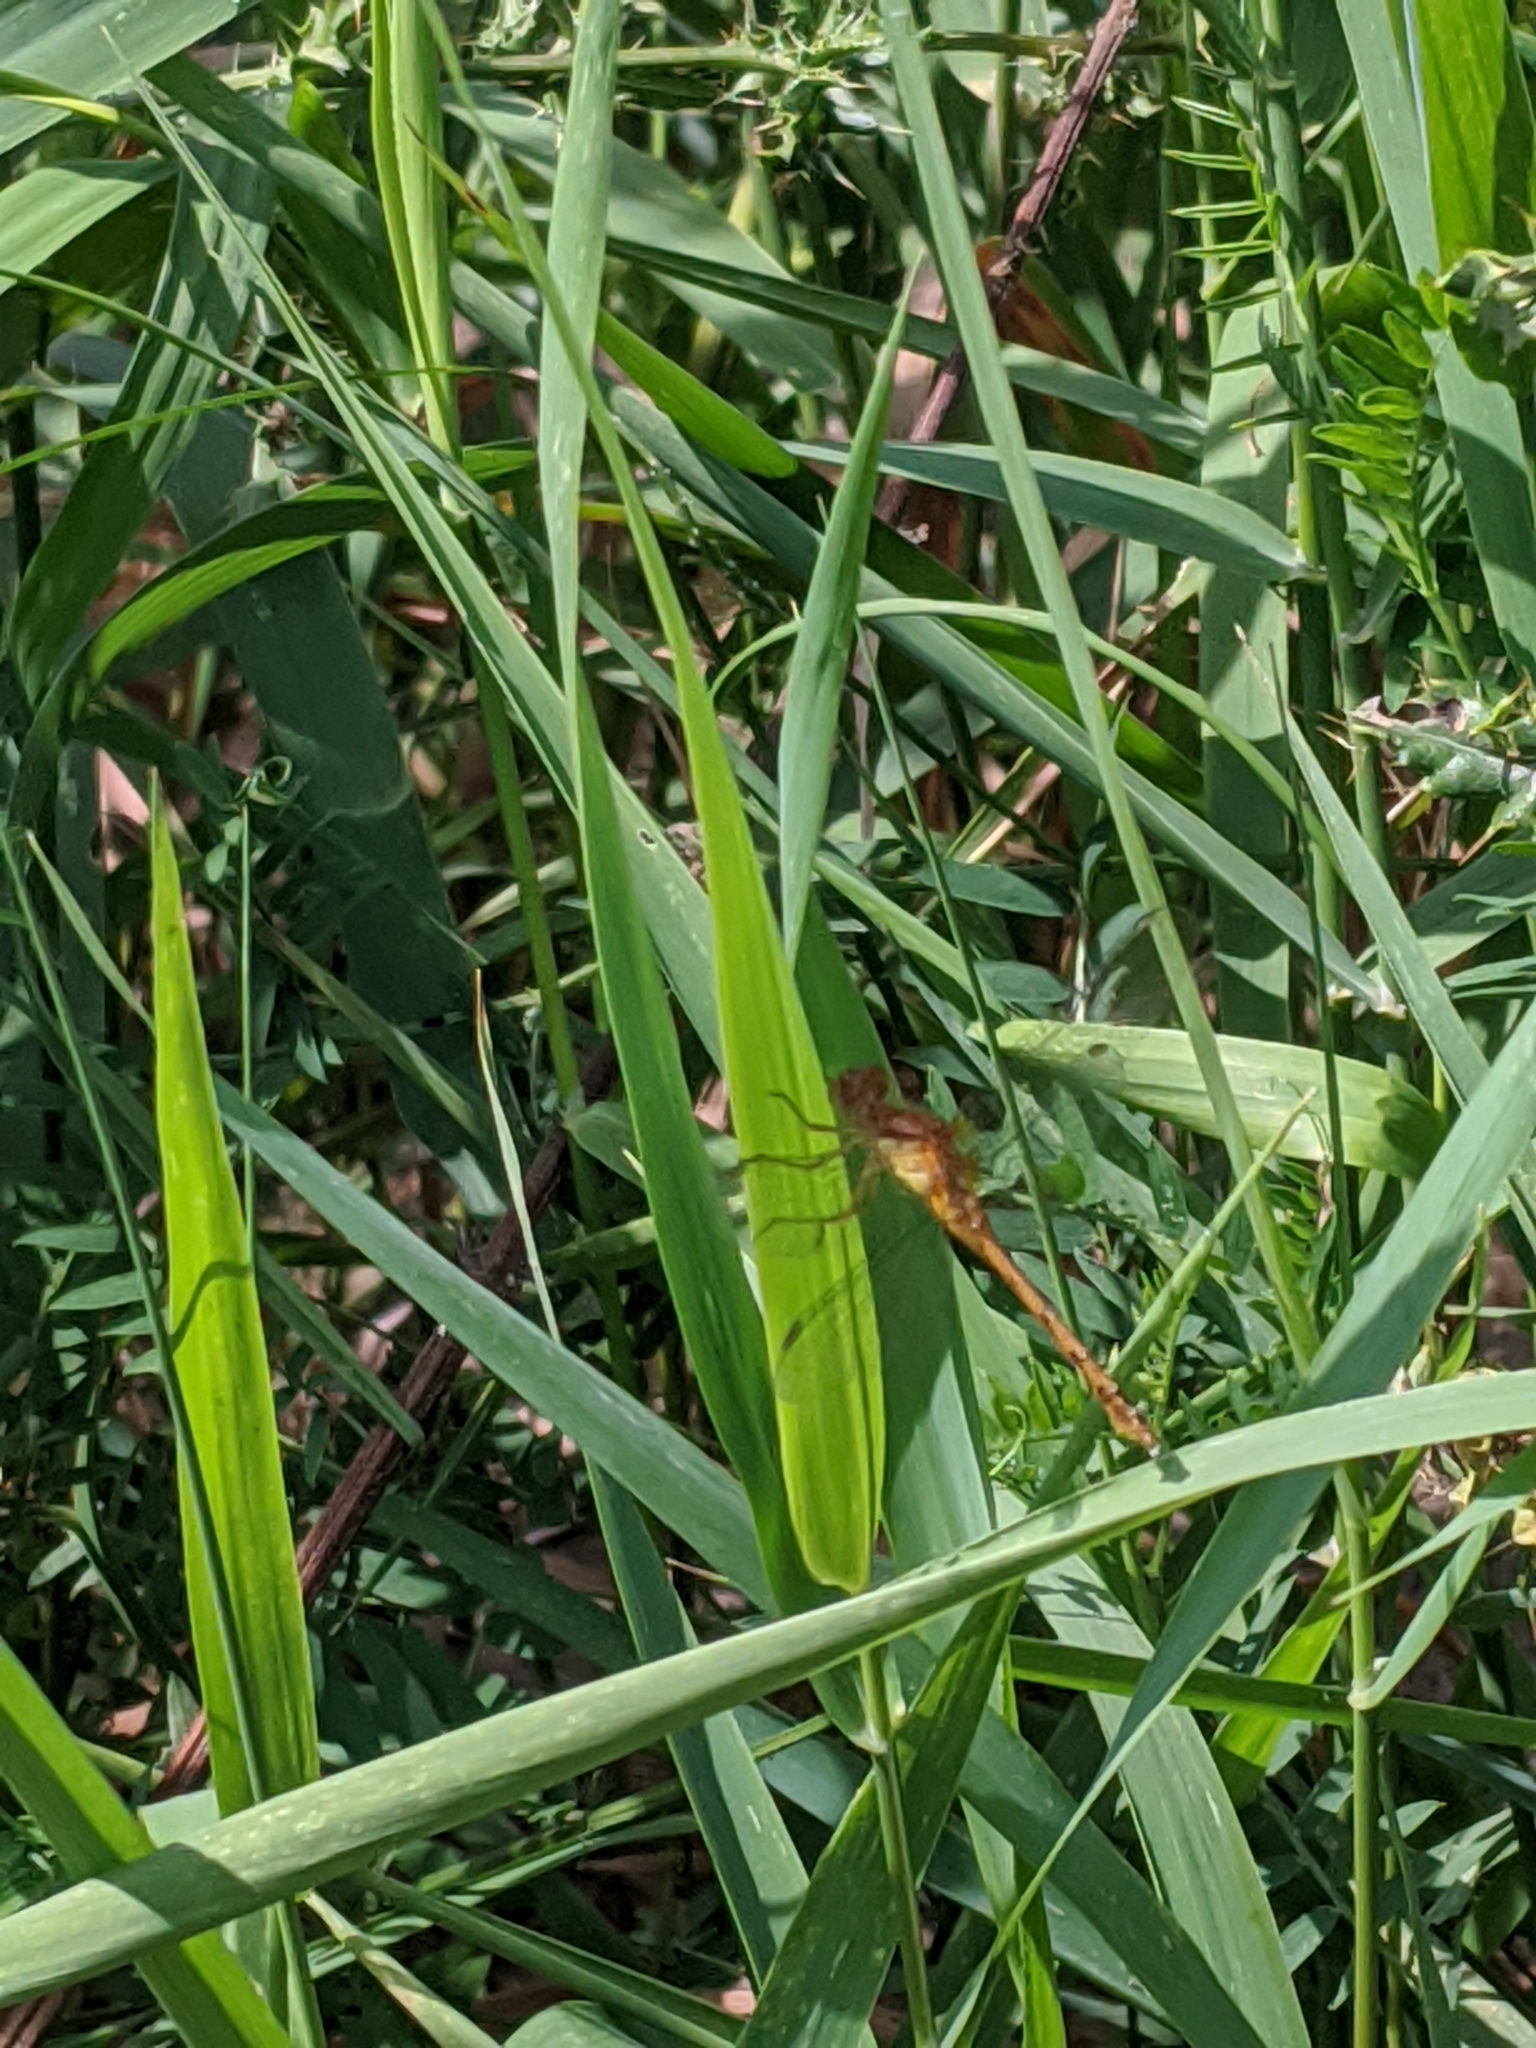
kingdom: Animalia
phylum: Arthropoda
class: Insecta
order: Odonata
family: Libellulidae
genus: Sympetrum
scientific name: Sympetrum vicinum
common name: Autumn meadowhawk
